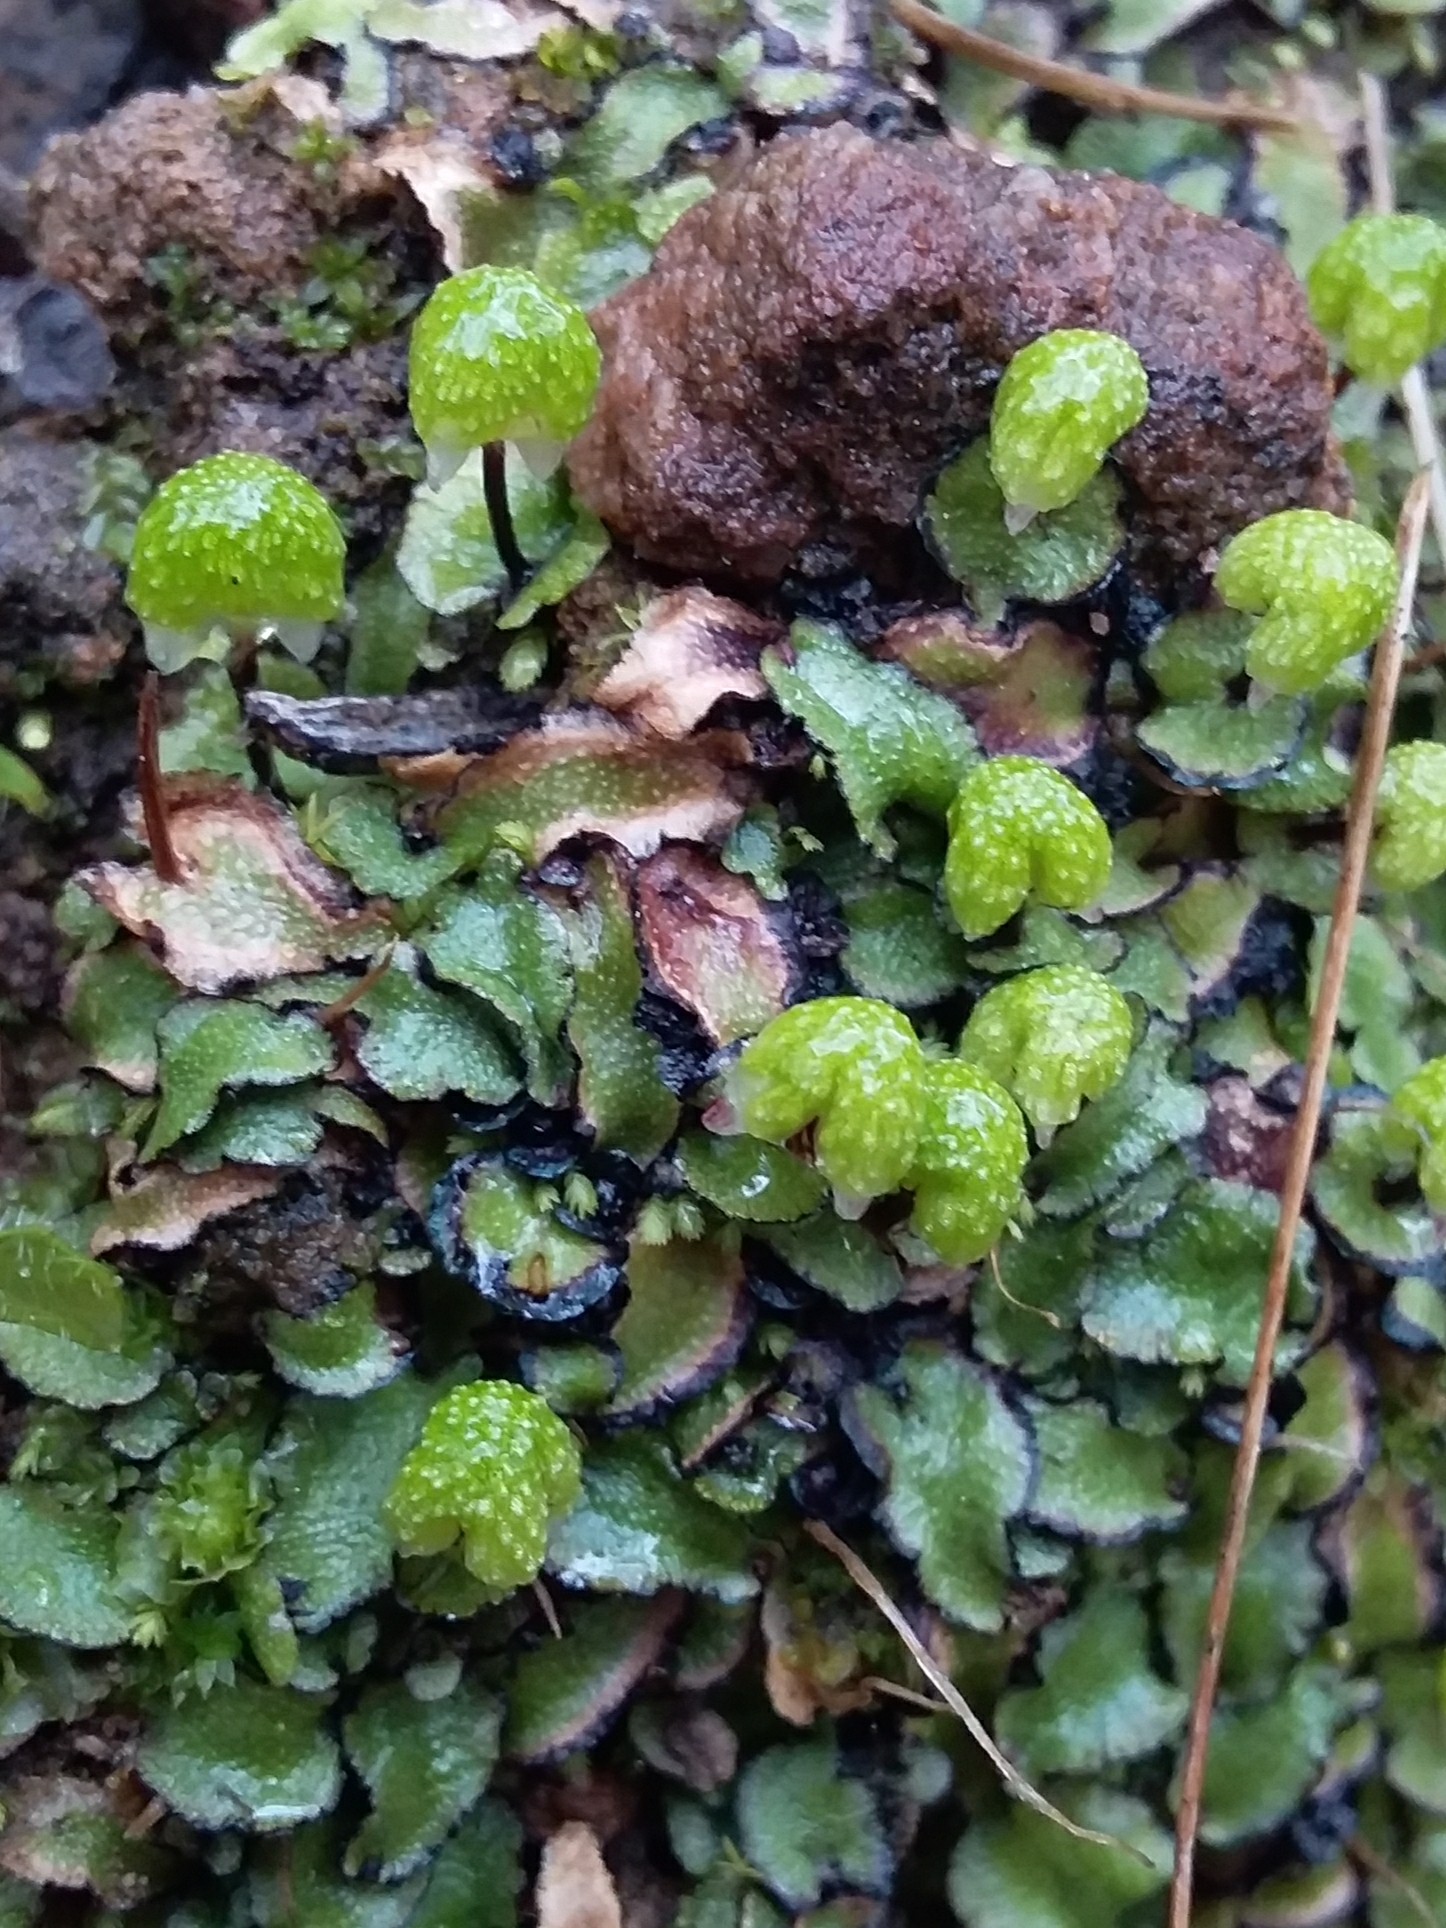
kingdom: Plantae
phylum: Marchantiophyta
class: Marchantiopsida
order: Marchantiales
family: Aytoniaceae
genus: Asterella
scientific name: Asterella drummondii
